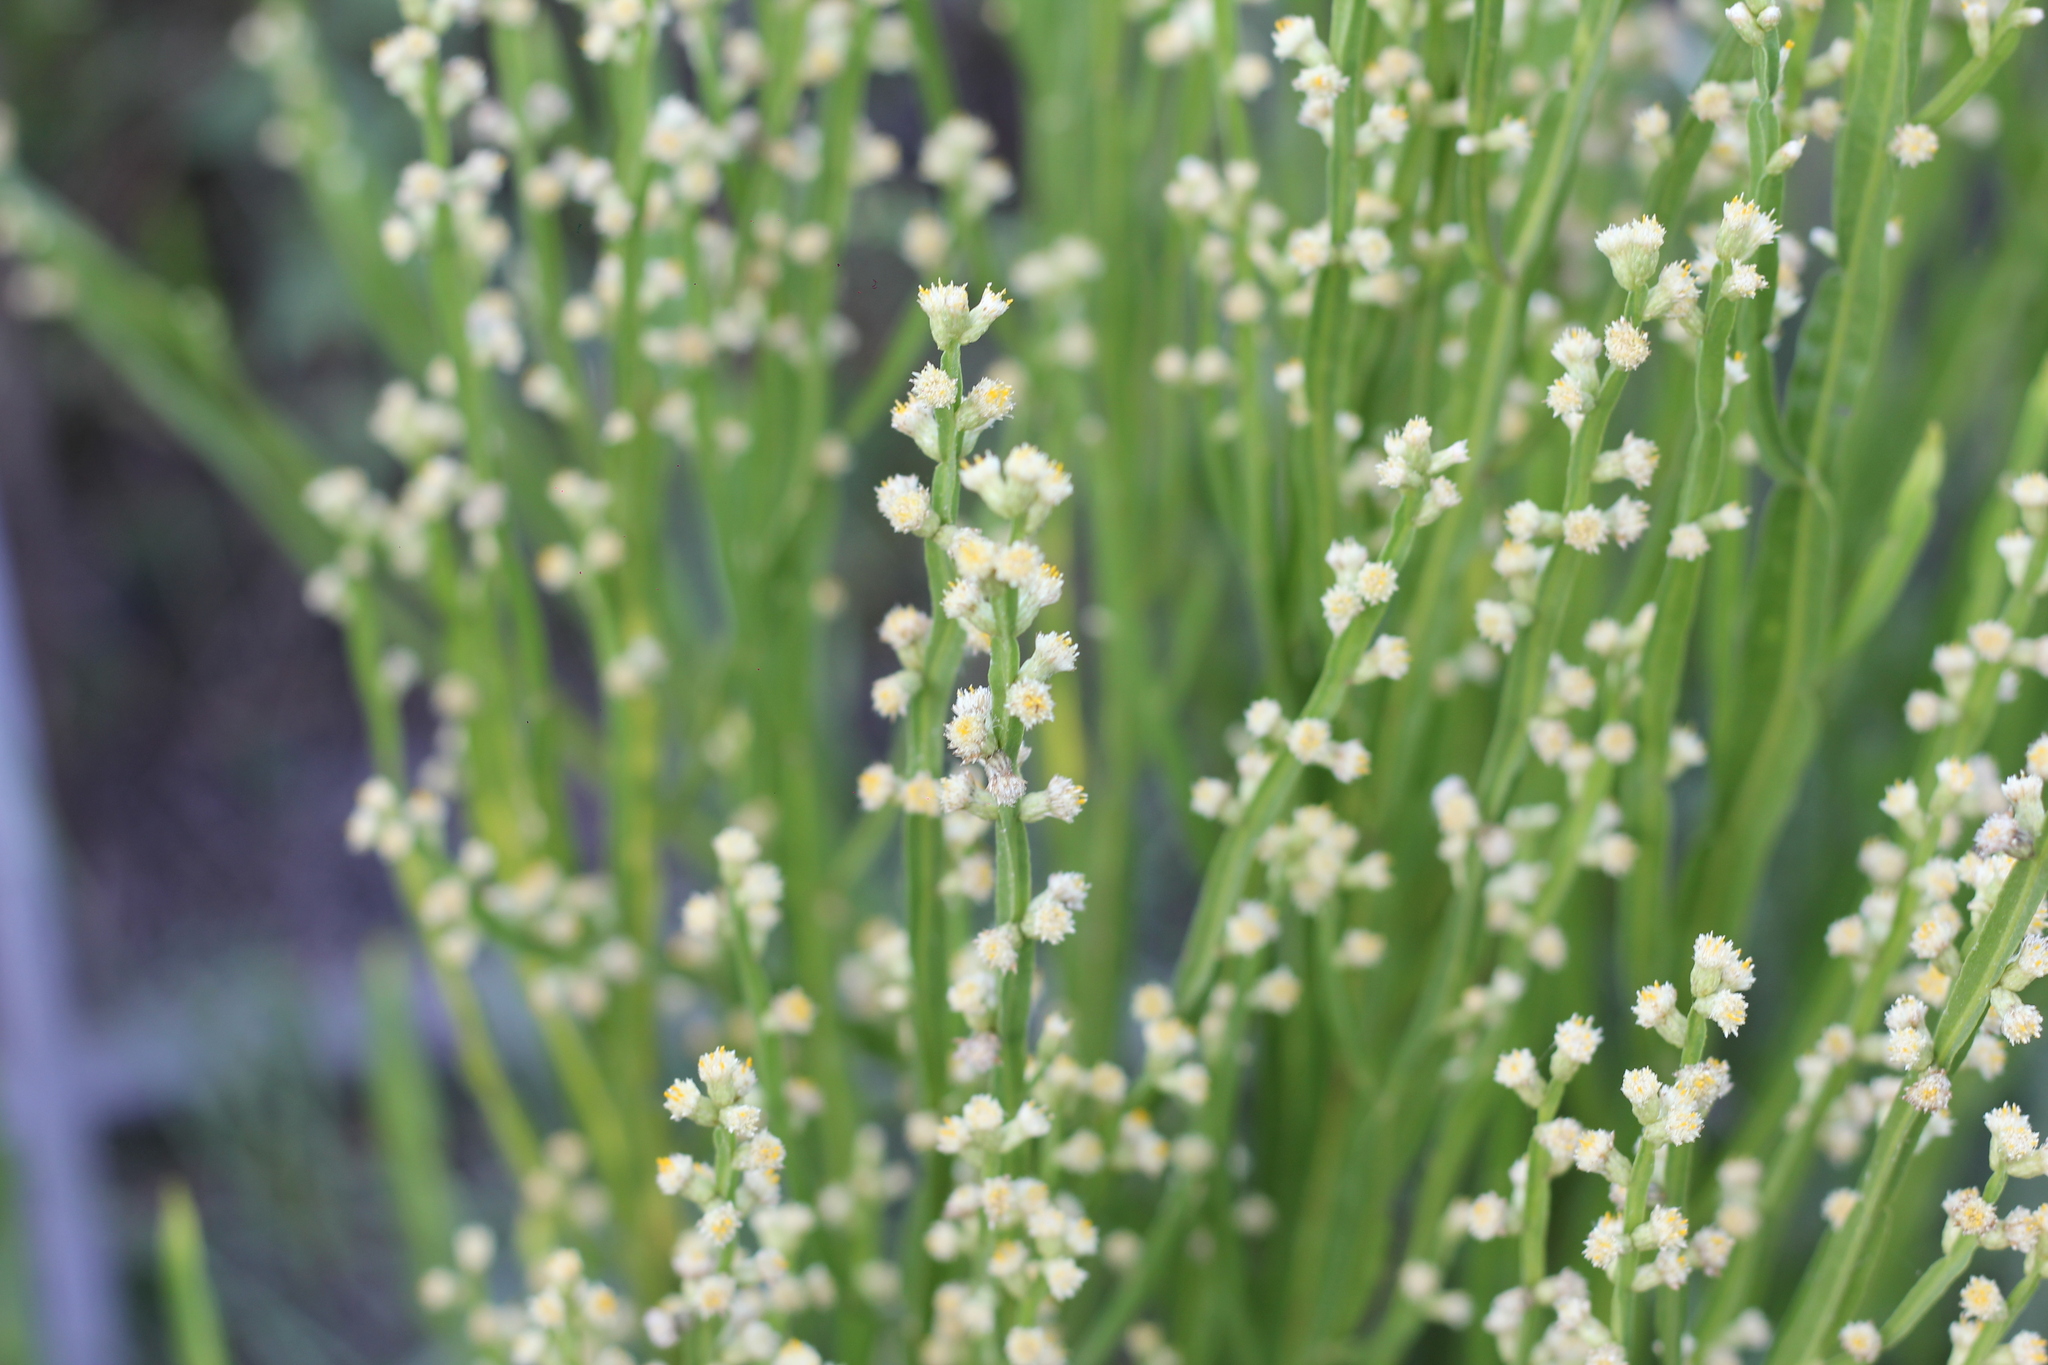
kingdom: Plantae
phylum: Tracheophyta
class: Magnoliopsida
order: Asterales
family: Asteraceae
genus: Baccharis
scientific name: Baccharis trimera
